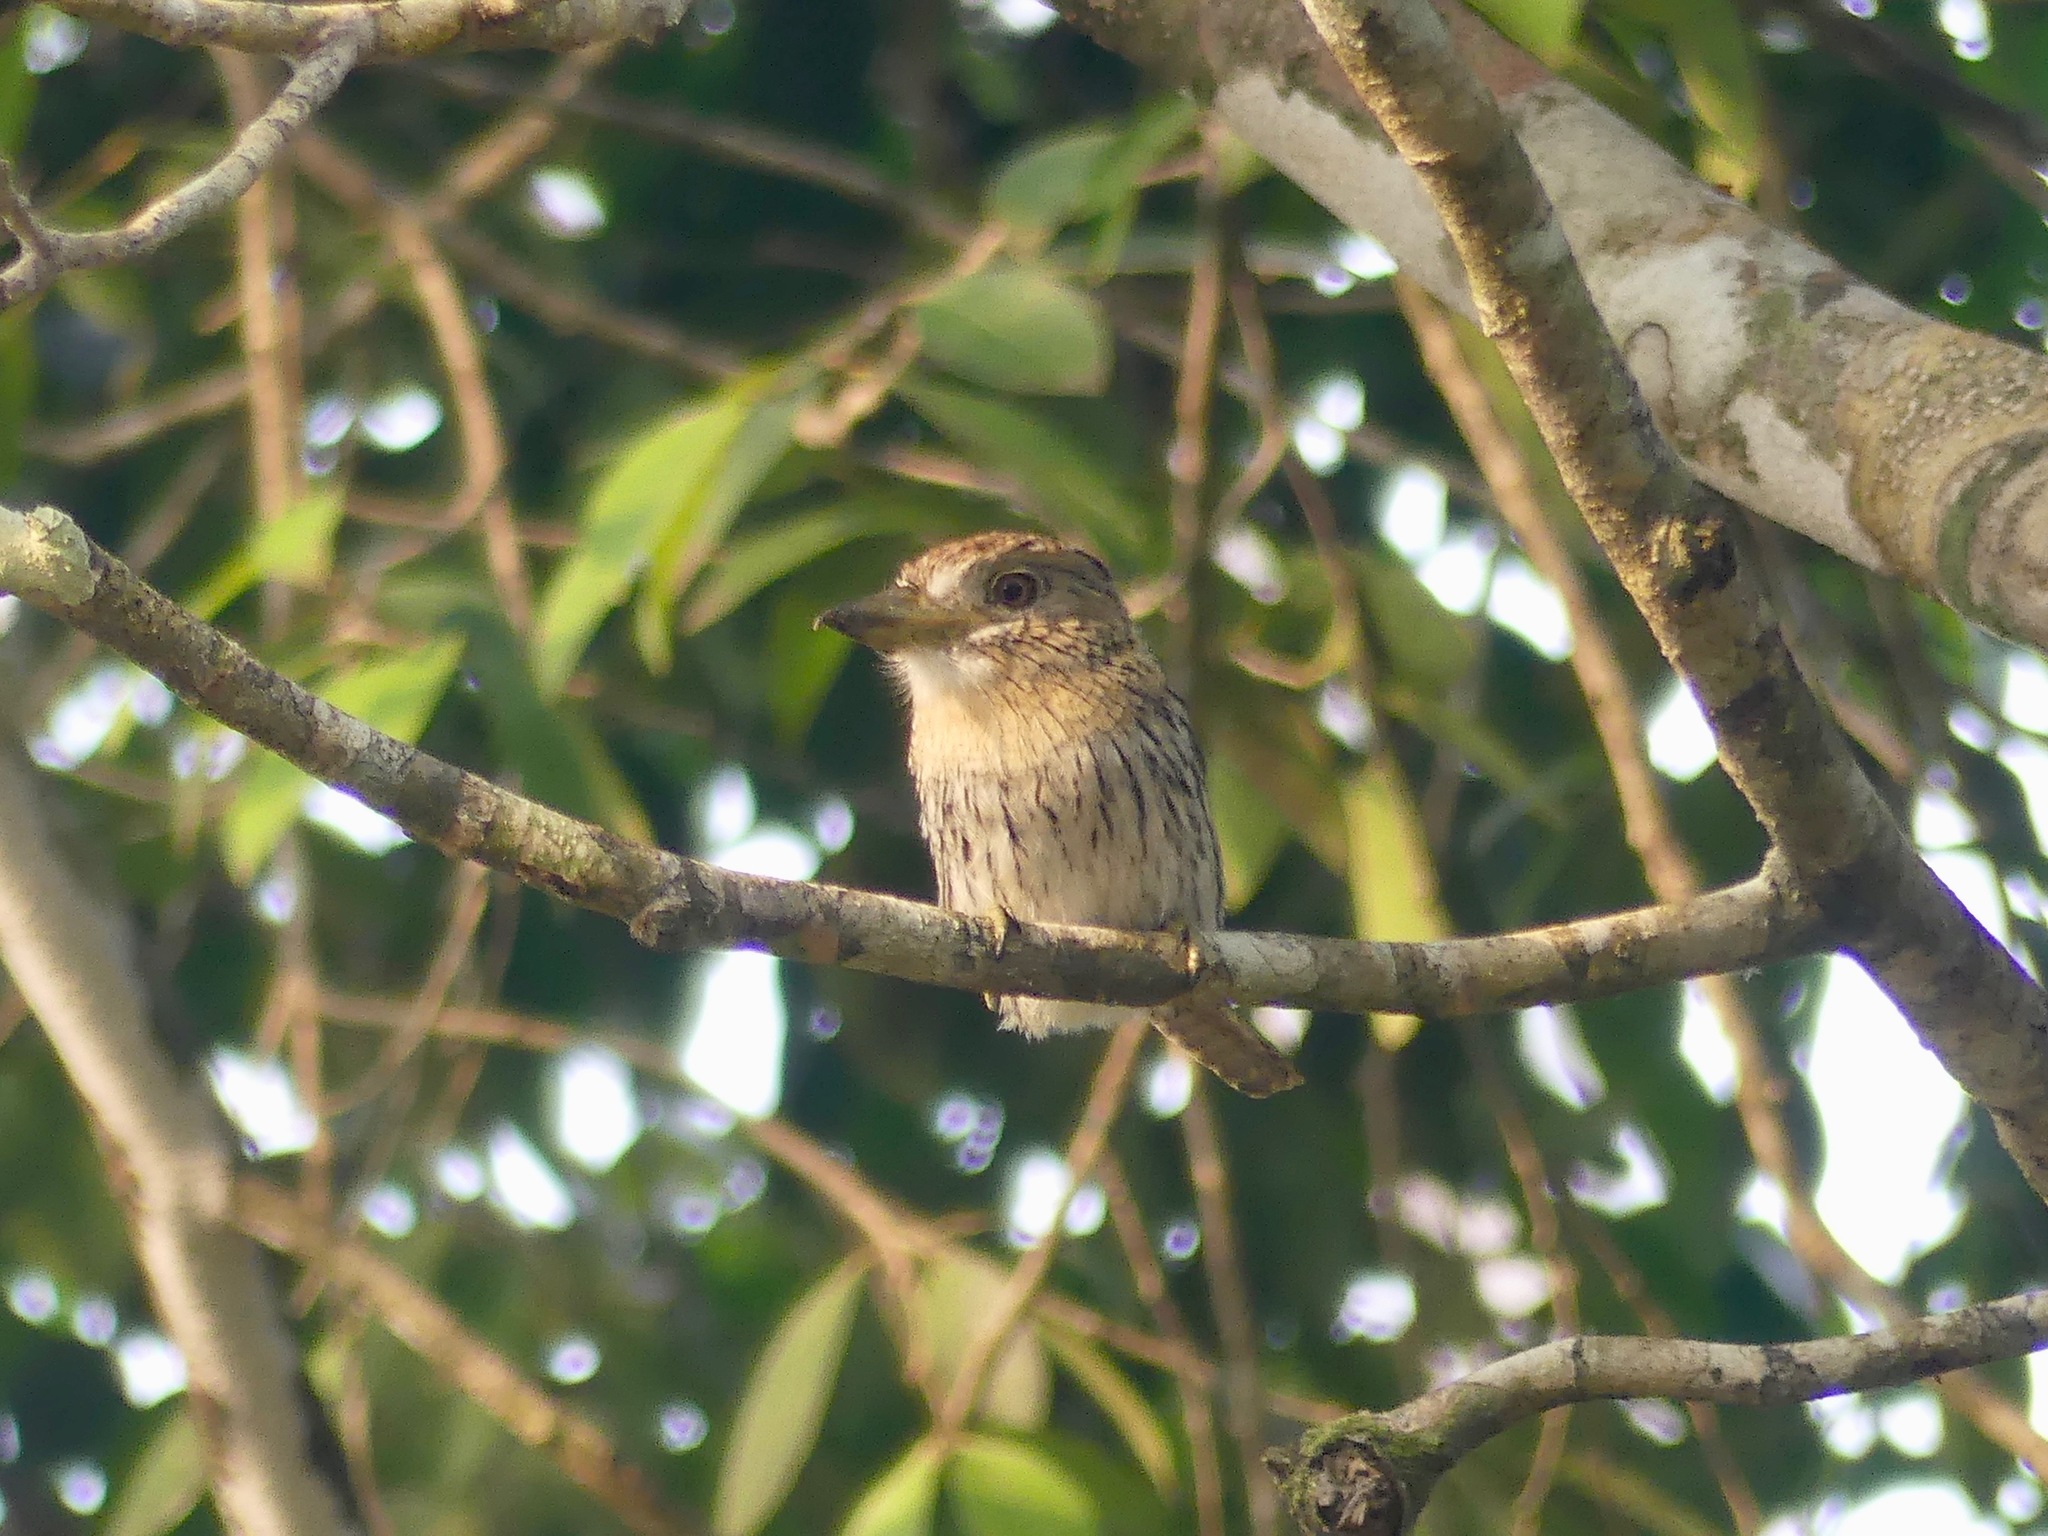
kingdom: Animalia
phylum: Chordata
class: Aves
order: Piciformes
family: Bucconidae
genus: Nystalus
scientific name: Nystalus obamai
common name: Western striolated puffbird
